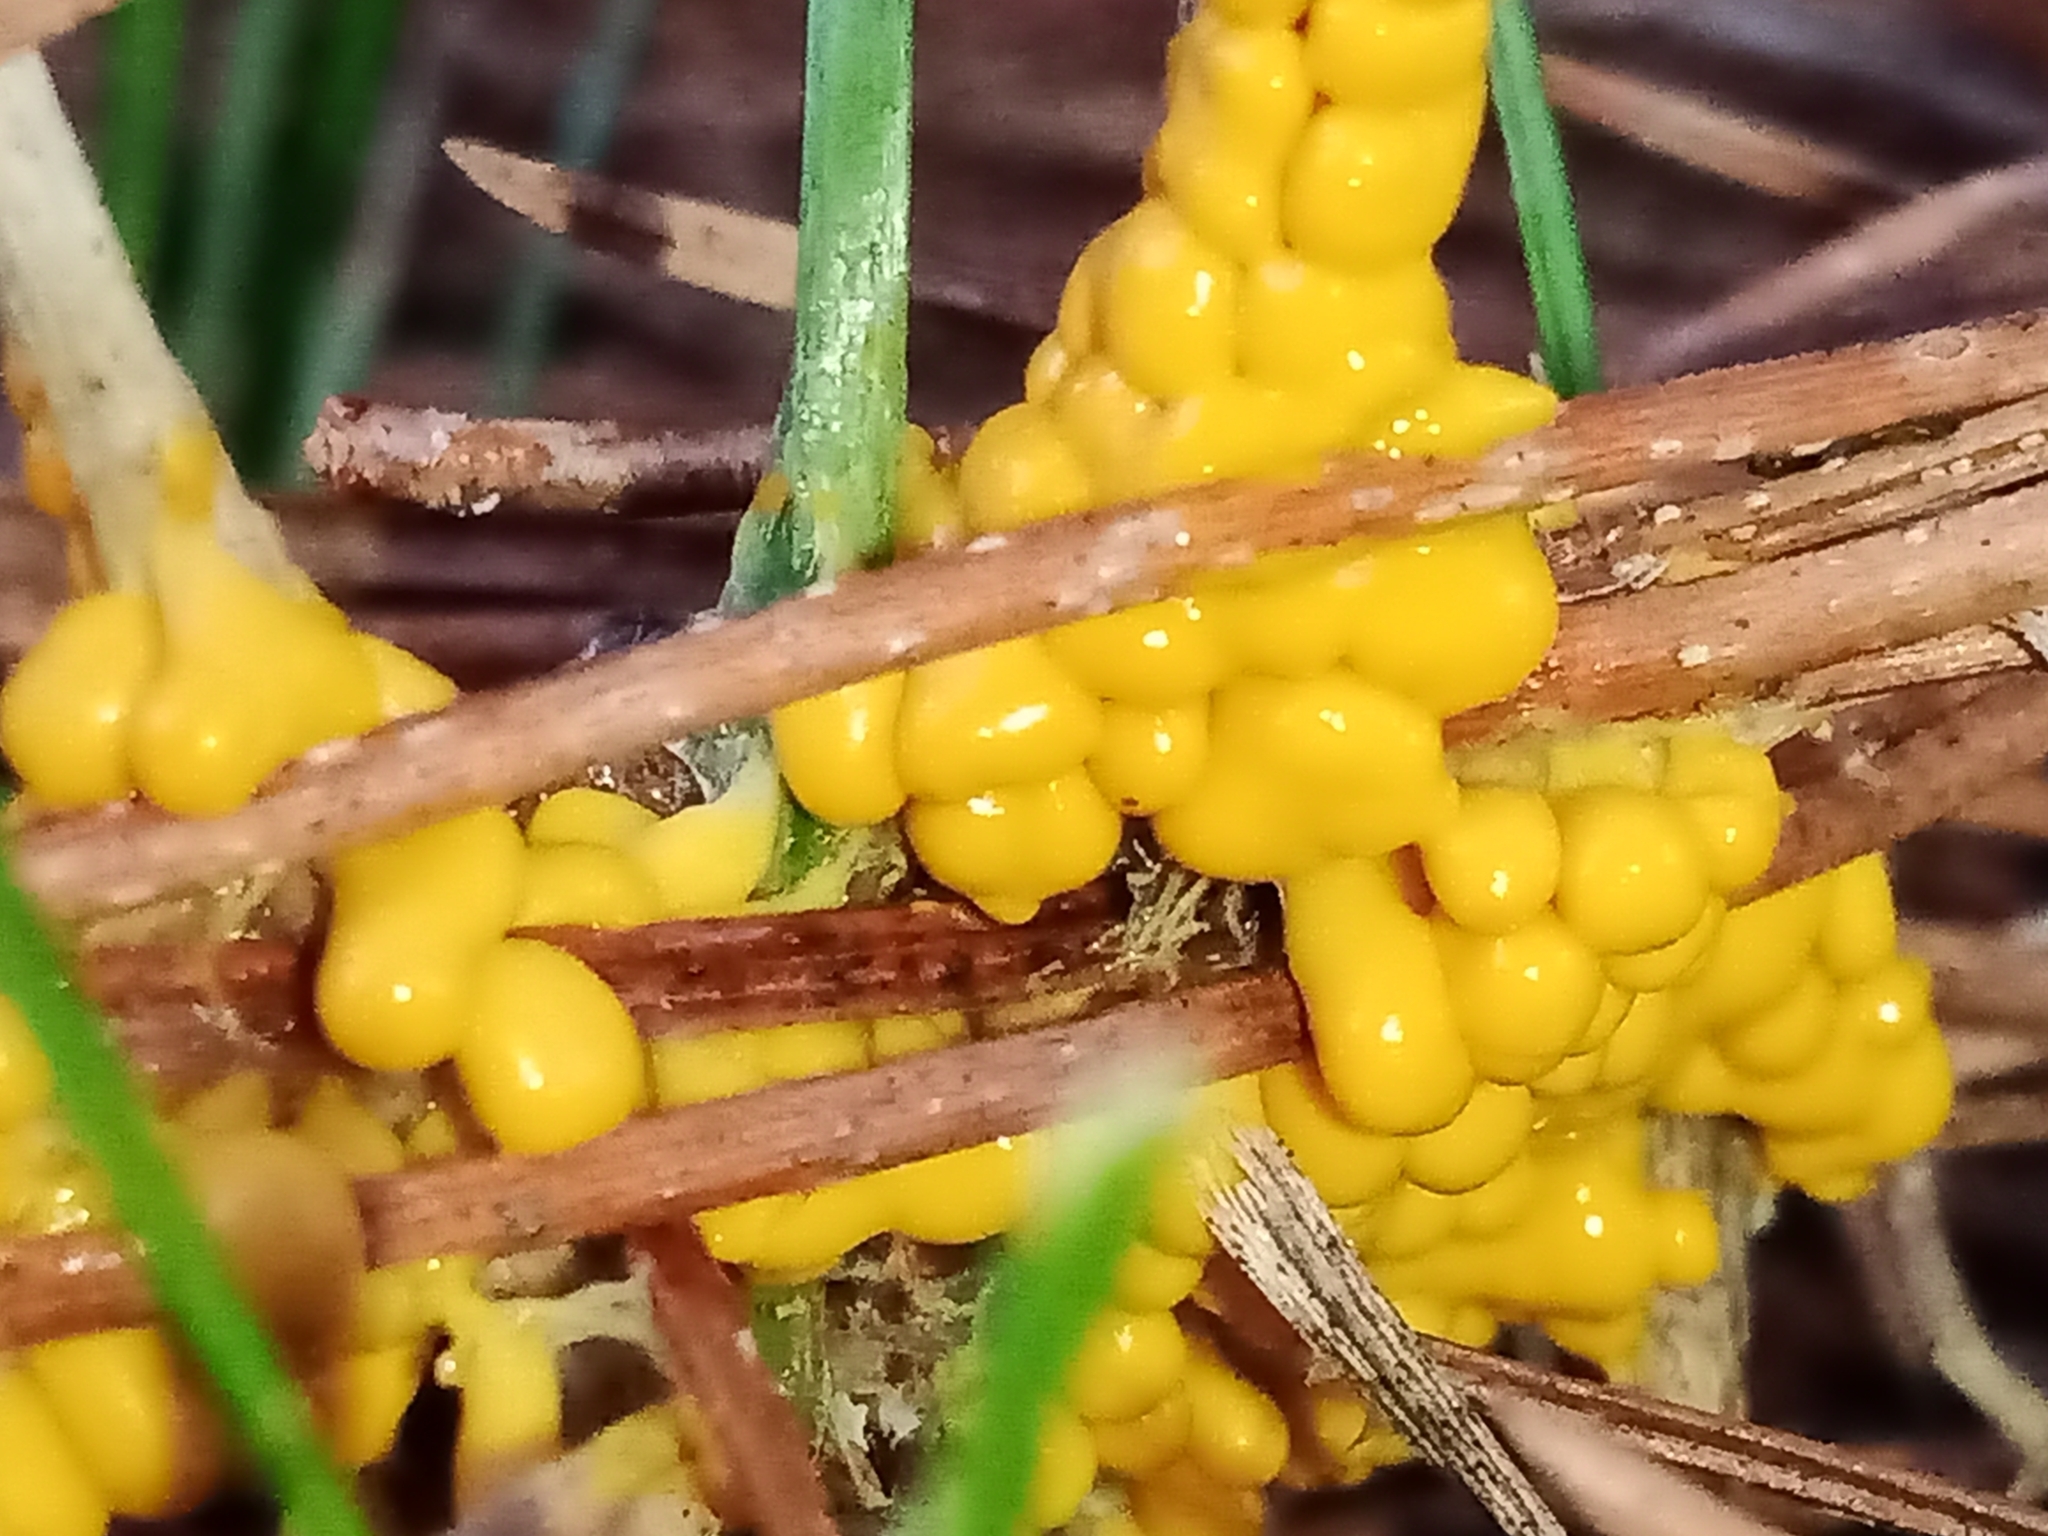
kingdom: Protozoa
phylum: Mycetozoa
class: Myxomycetes
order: Physarales
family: Physaraceae
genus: Leocarpus
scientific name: Leocarpus fragilis
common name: Insect-egg slime
